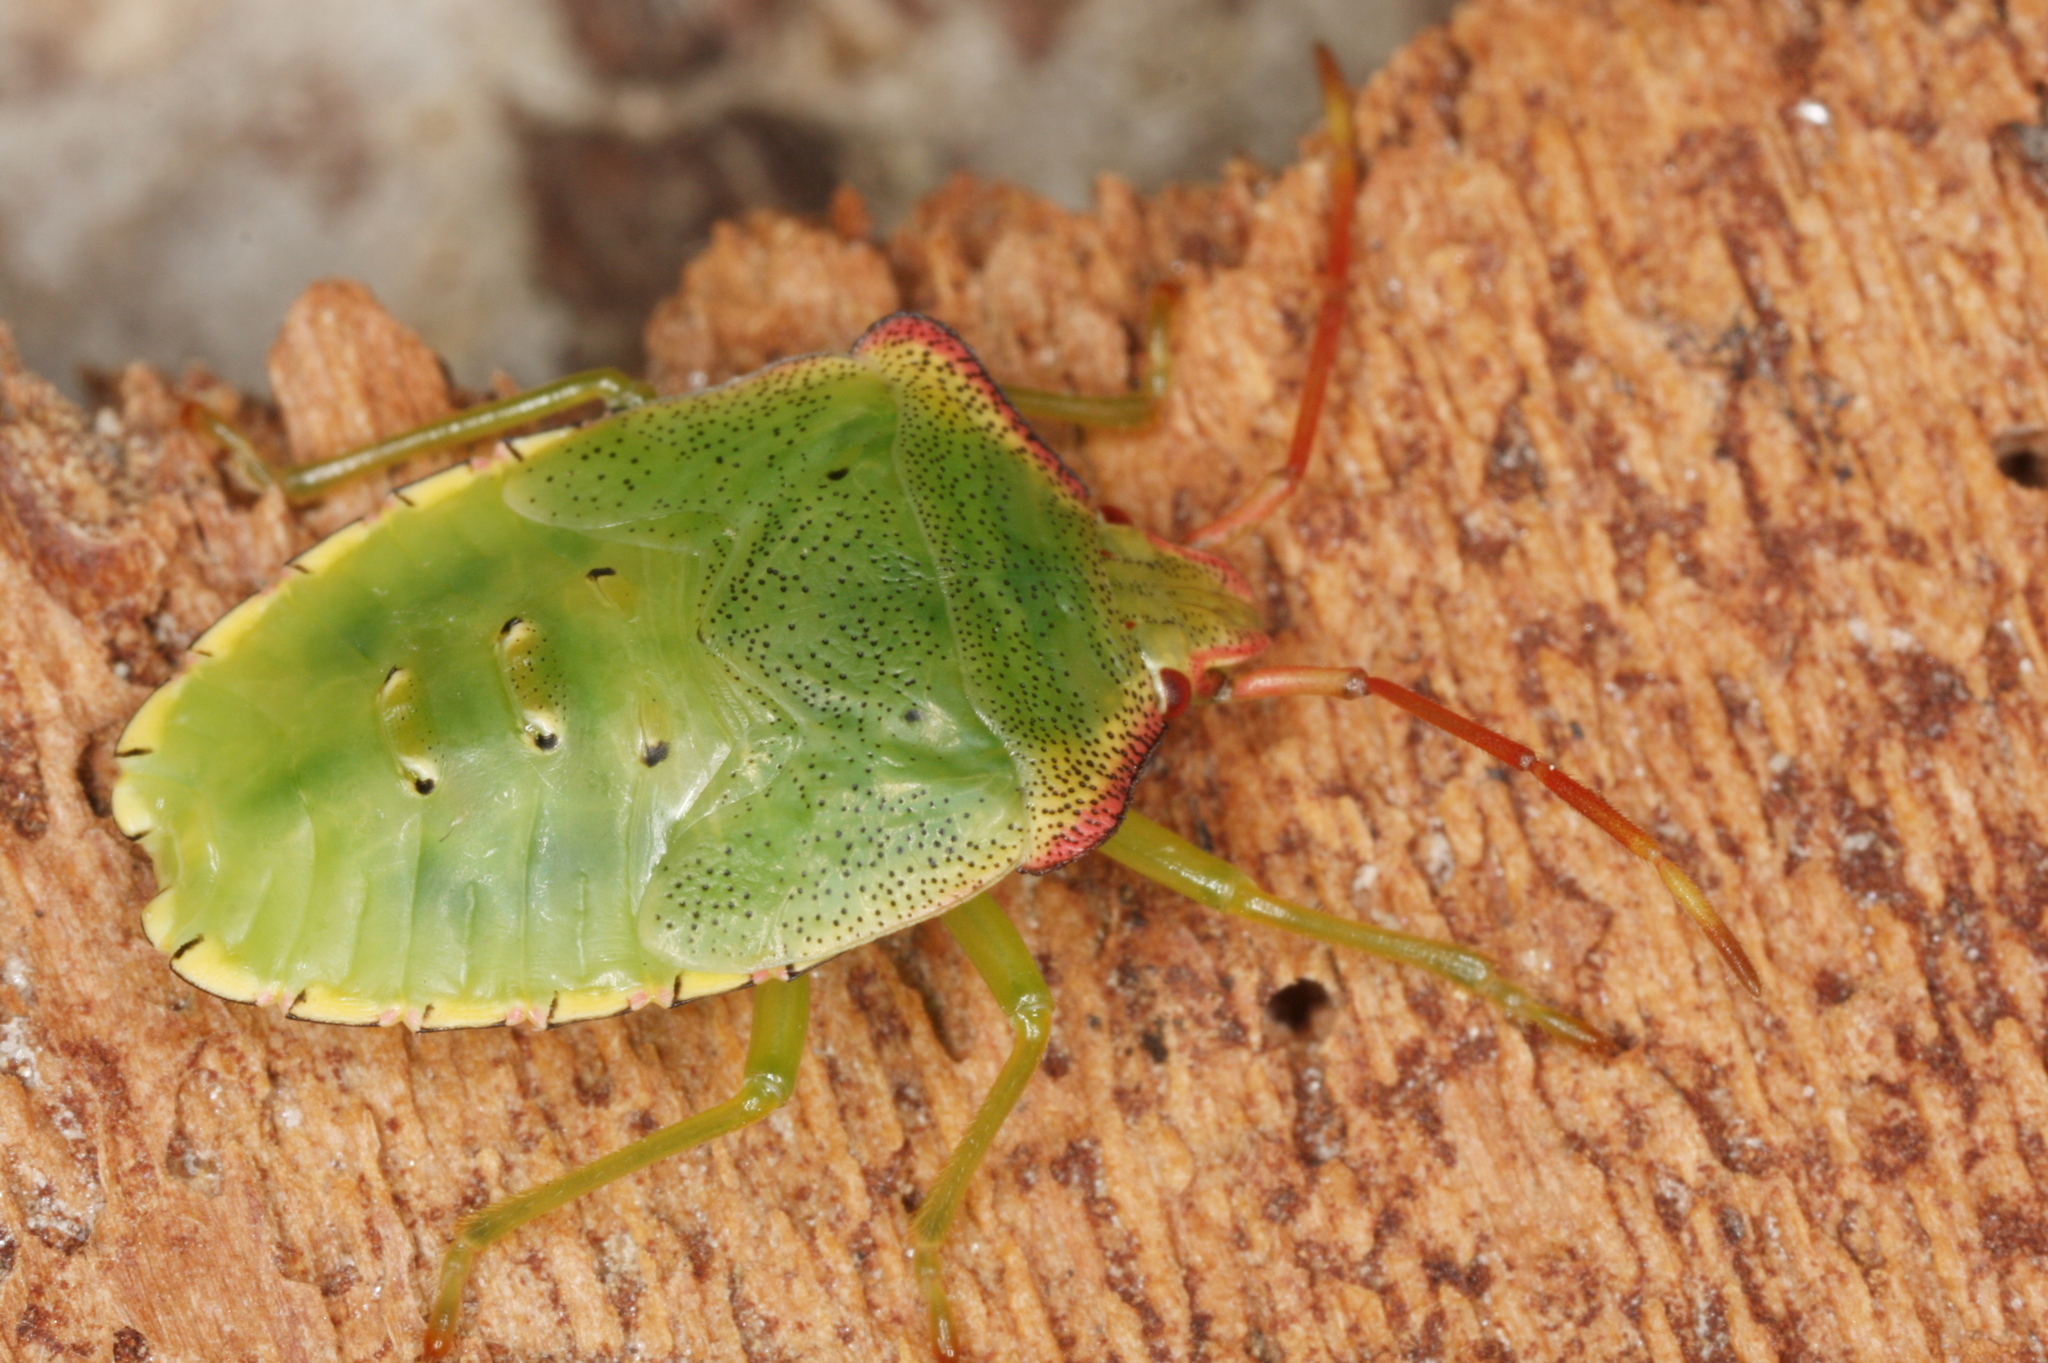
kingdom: Animalia
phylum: Arthropoda
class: Insecta
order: Hemiptera
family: Acanthosomatidae
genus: Acanthosoma
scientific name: Acanthosoma haemorrhoidale
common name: Hawthorn shieldbug
